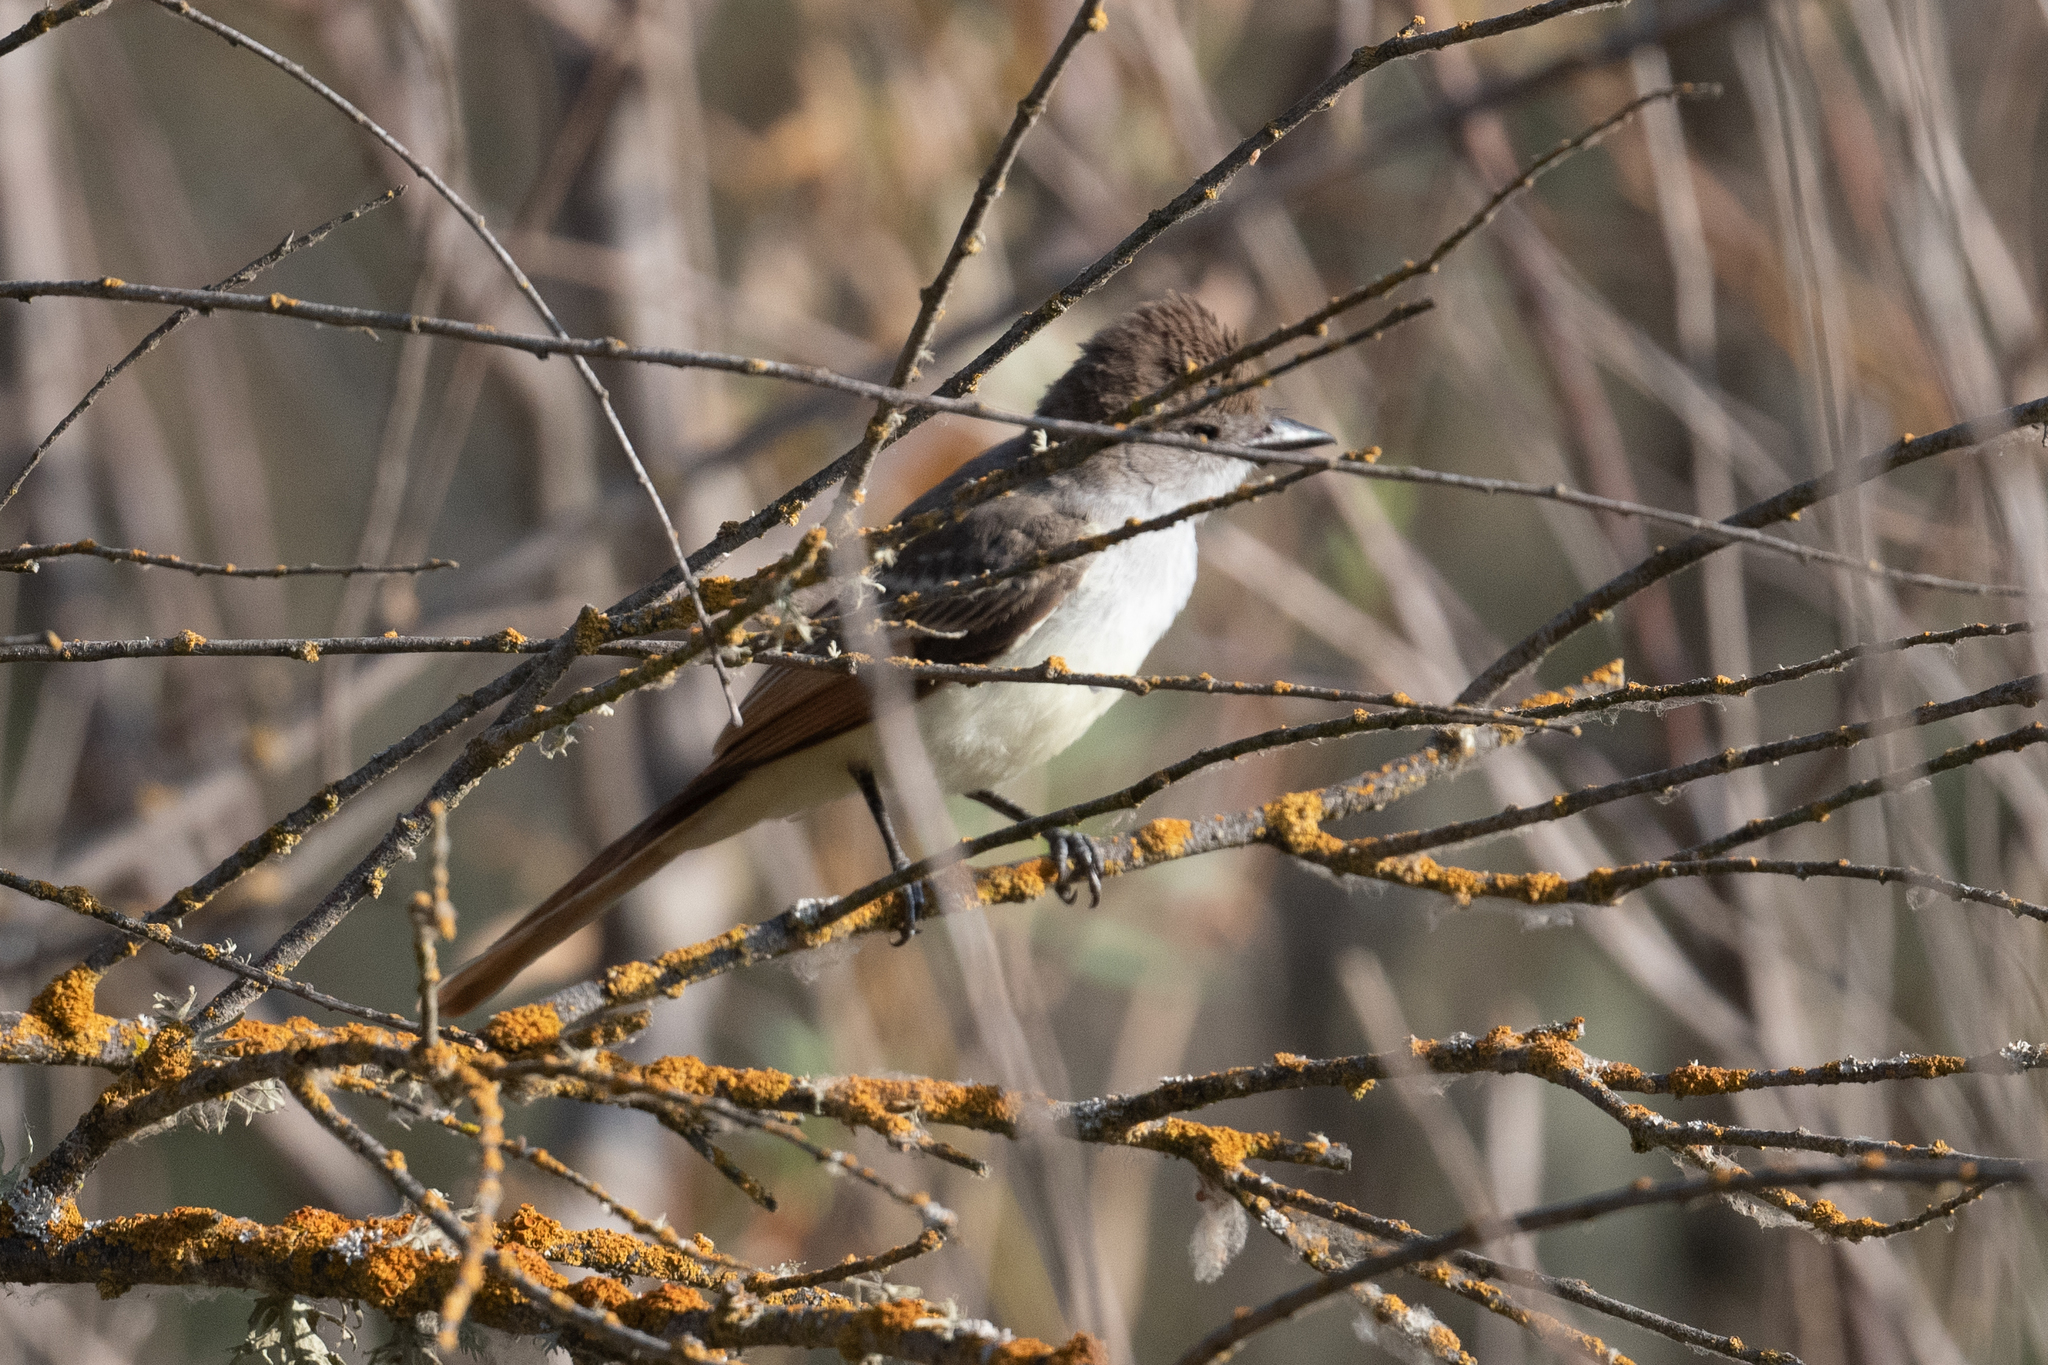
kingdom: Animalia
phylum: Chordata
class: Aves
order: Passeriformes
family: Tyrannidae
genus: Myiarchus
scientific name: Myiarchus cinerascens
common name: Ash-throated flycatcher
